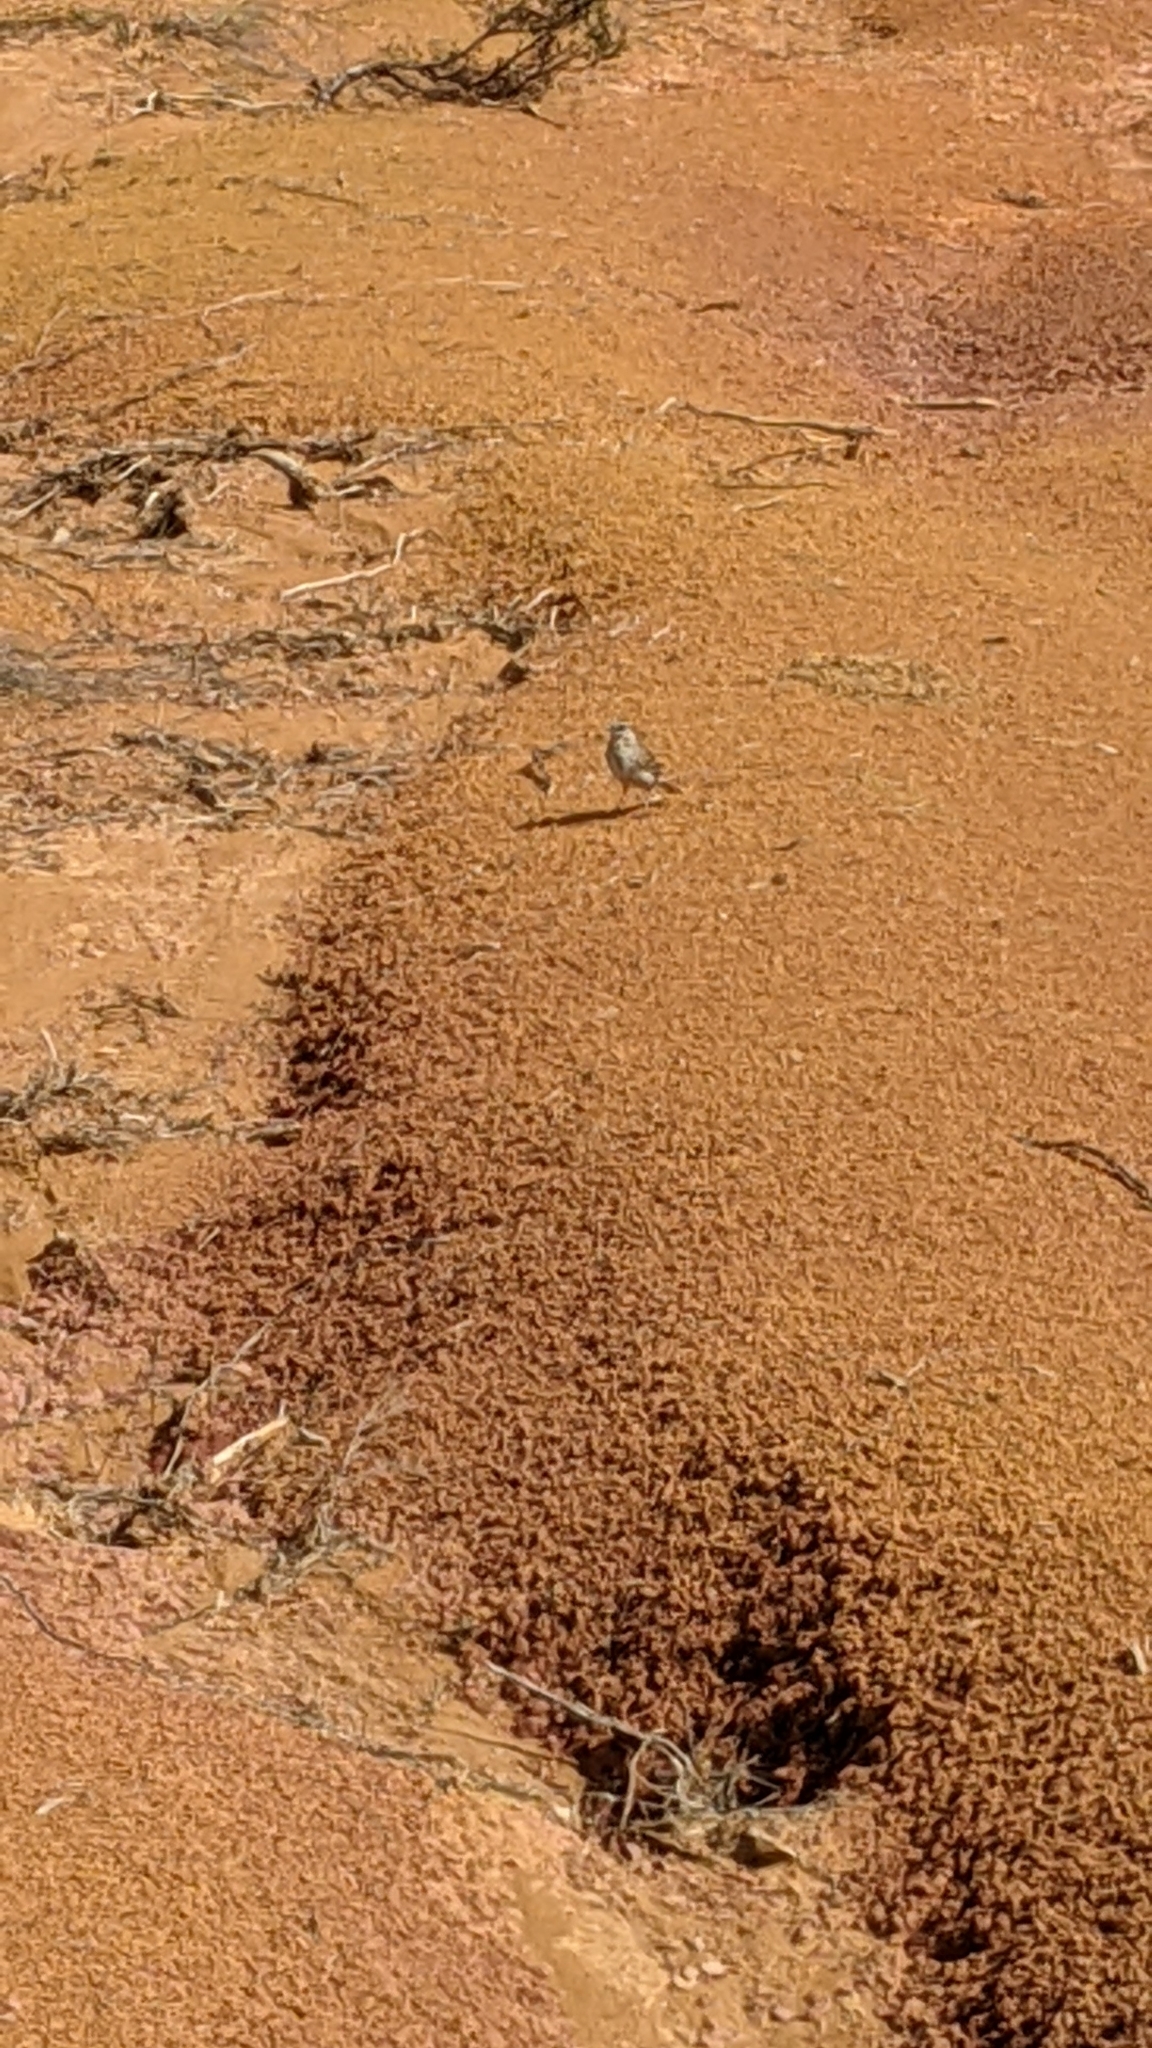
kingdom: Animalia
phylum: Chordata
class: Aves
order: Passeriformes
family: Motacillidae
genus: Anthus
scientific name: Anthus novaeseelandiae
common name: New zealand pipit
